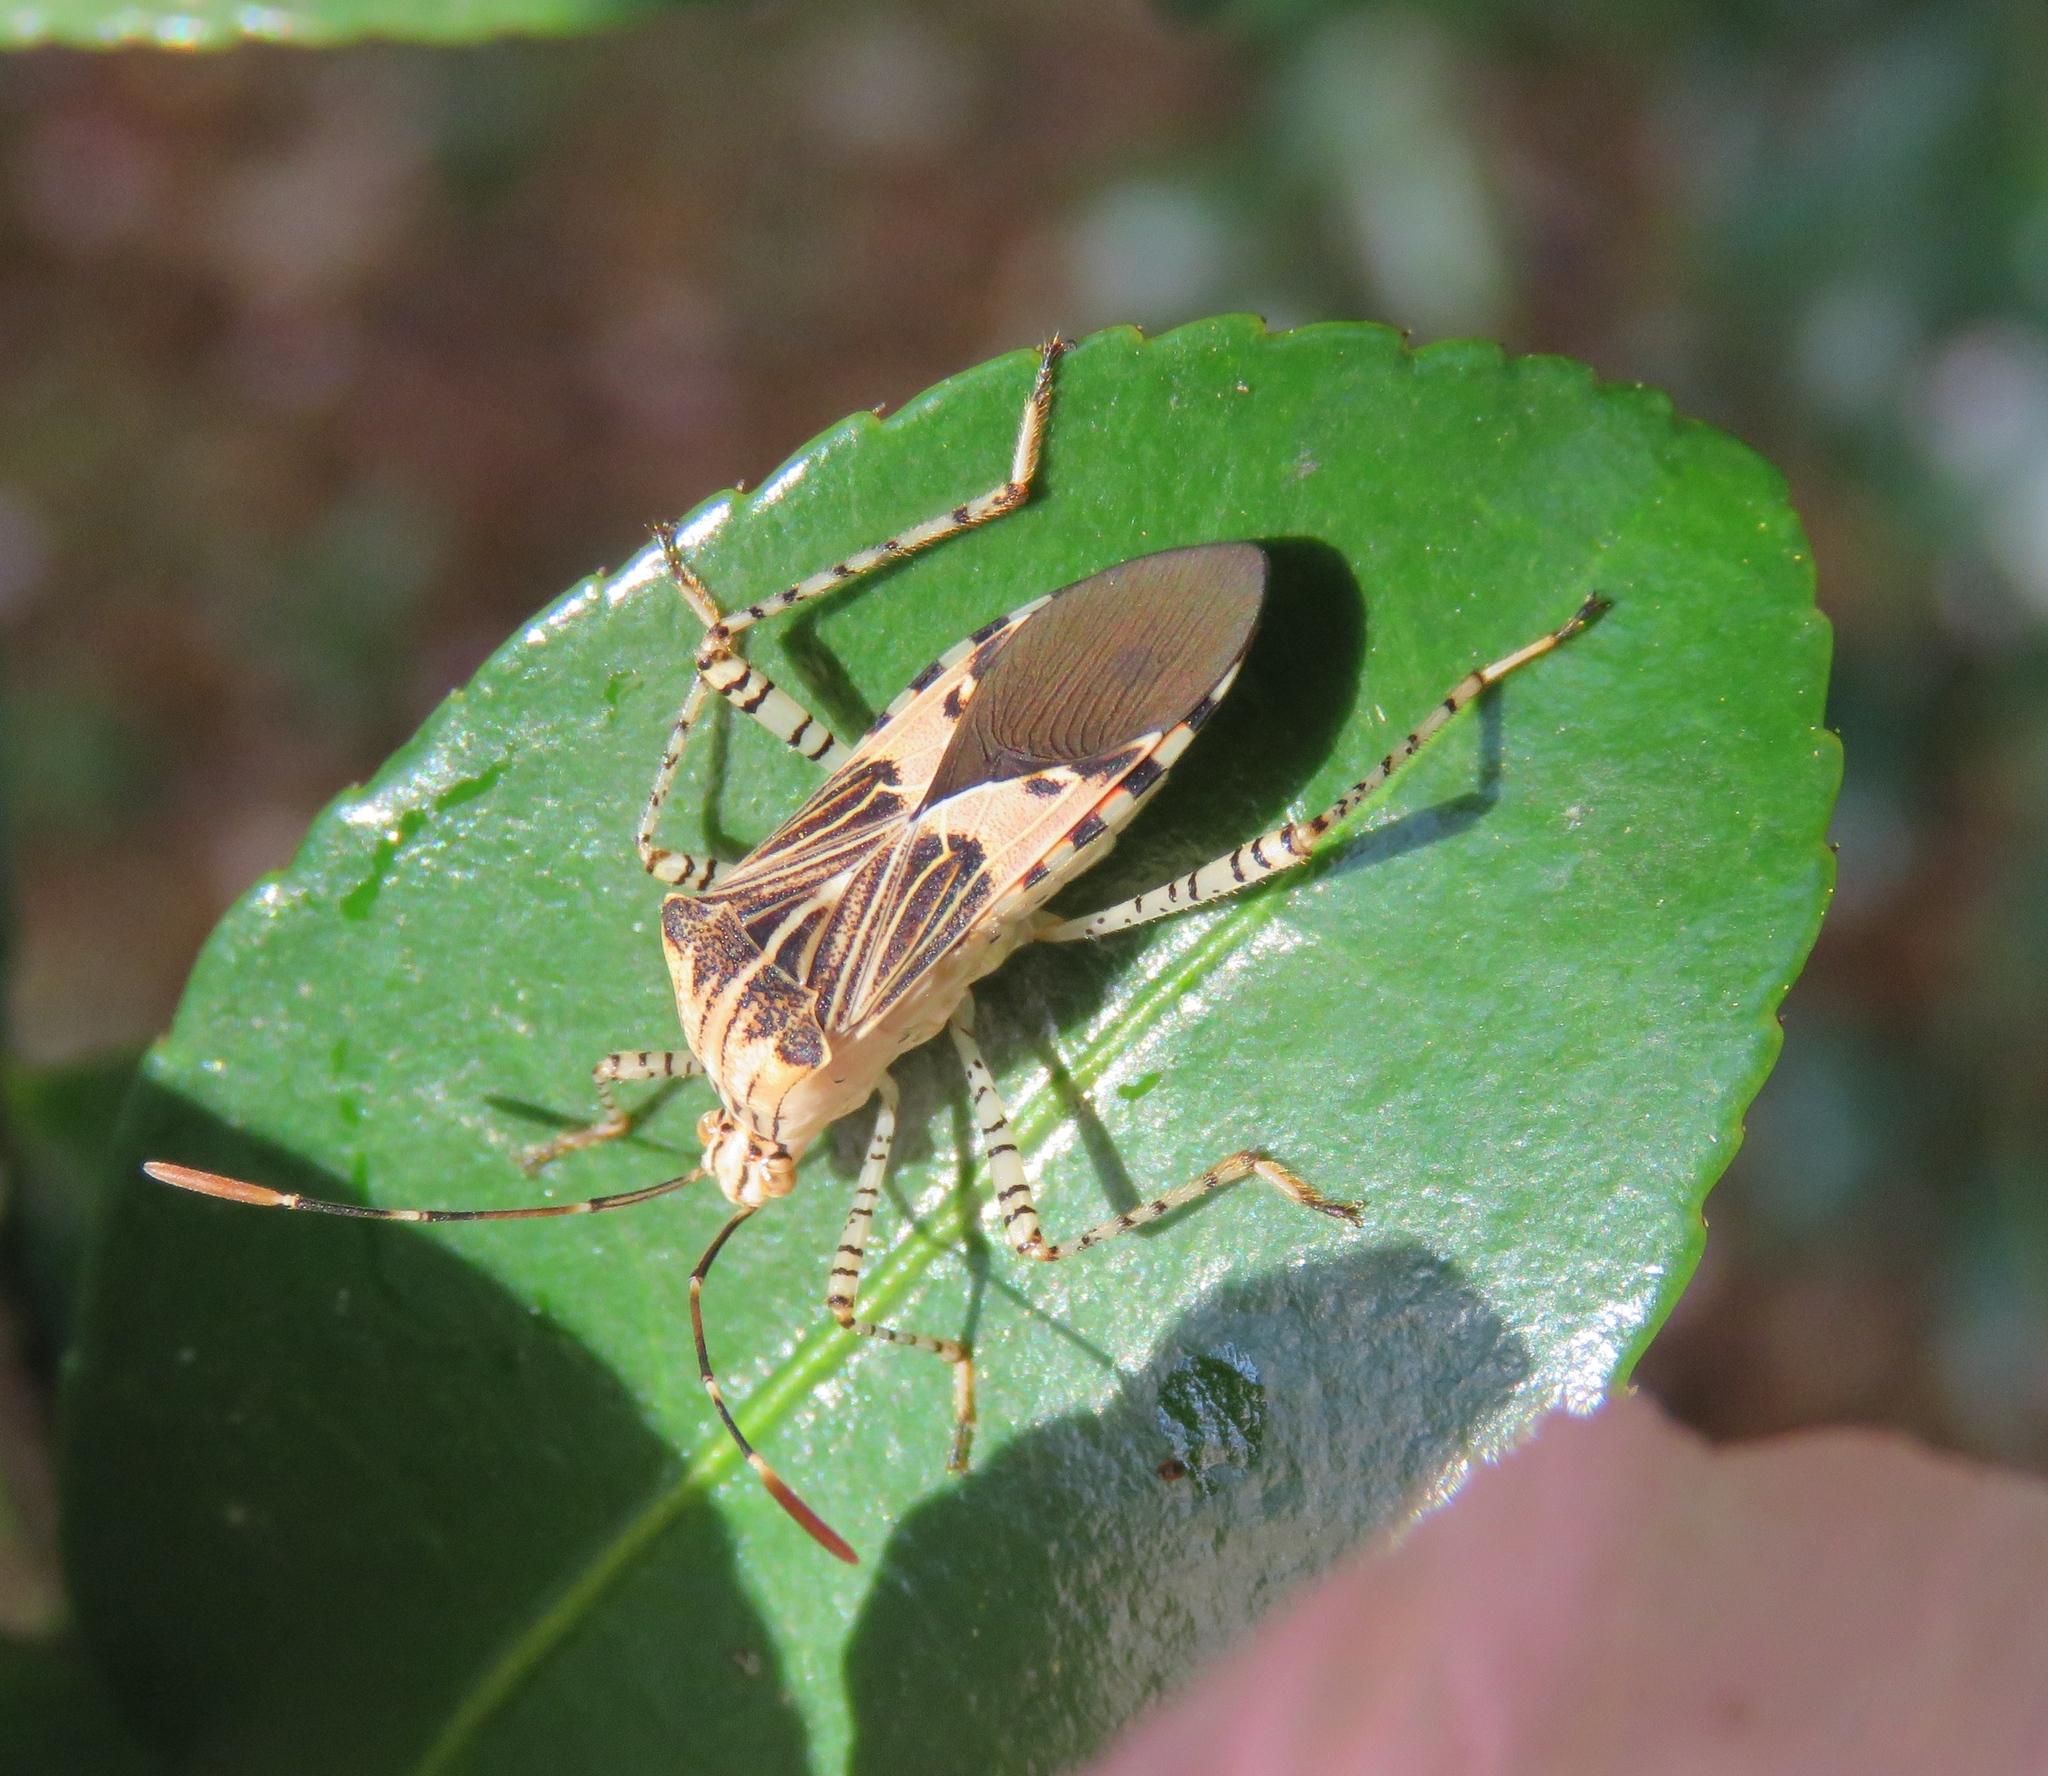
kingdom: Animalia
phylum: Arthropoda
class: Insecta
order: Hemiptera
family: Coreidae
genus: Hypselonotus
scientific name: Hypselonotus punctiventris
